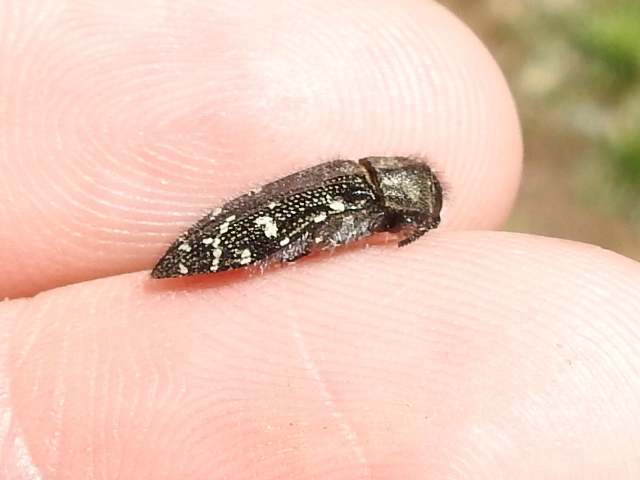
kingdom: Animalia
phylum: Arthropoda
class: Insecta
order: Coleoptera
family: Buprestidae
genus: Acmaeodera
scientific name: Acmaeodera ornatoides
